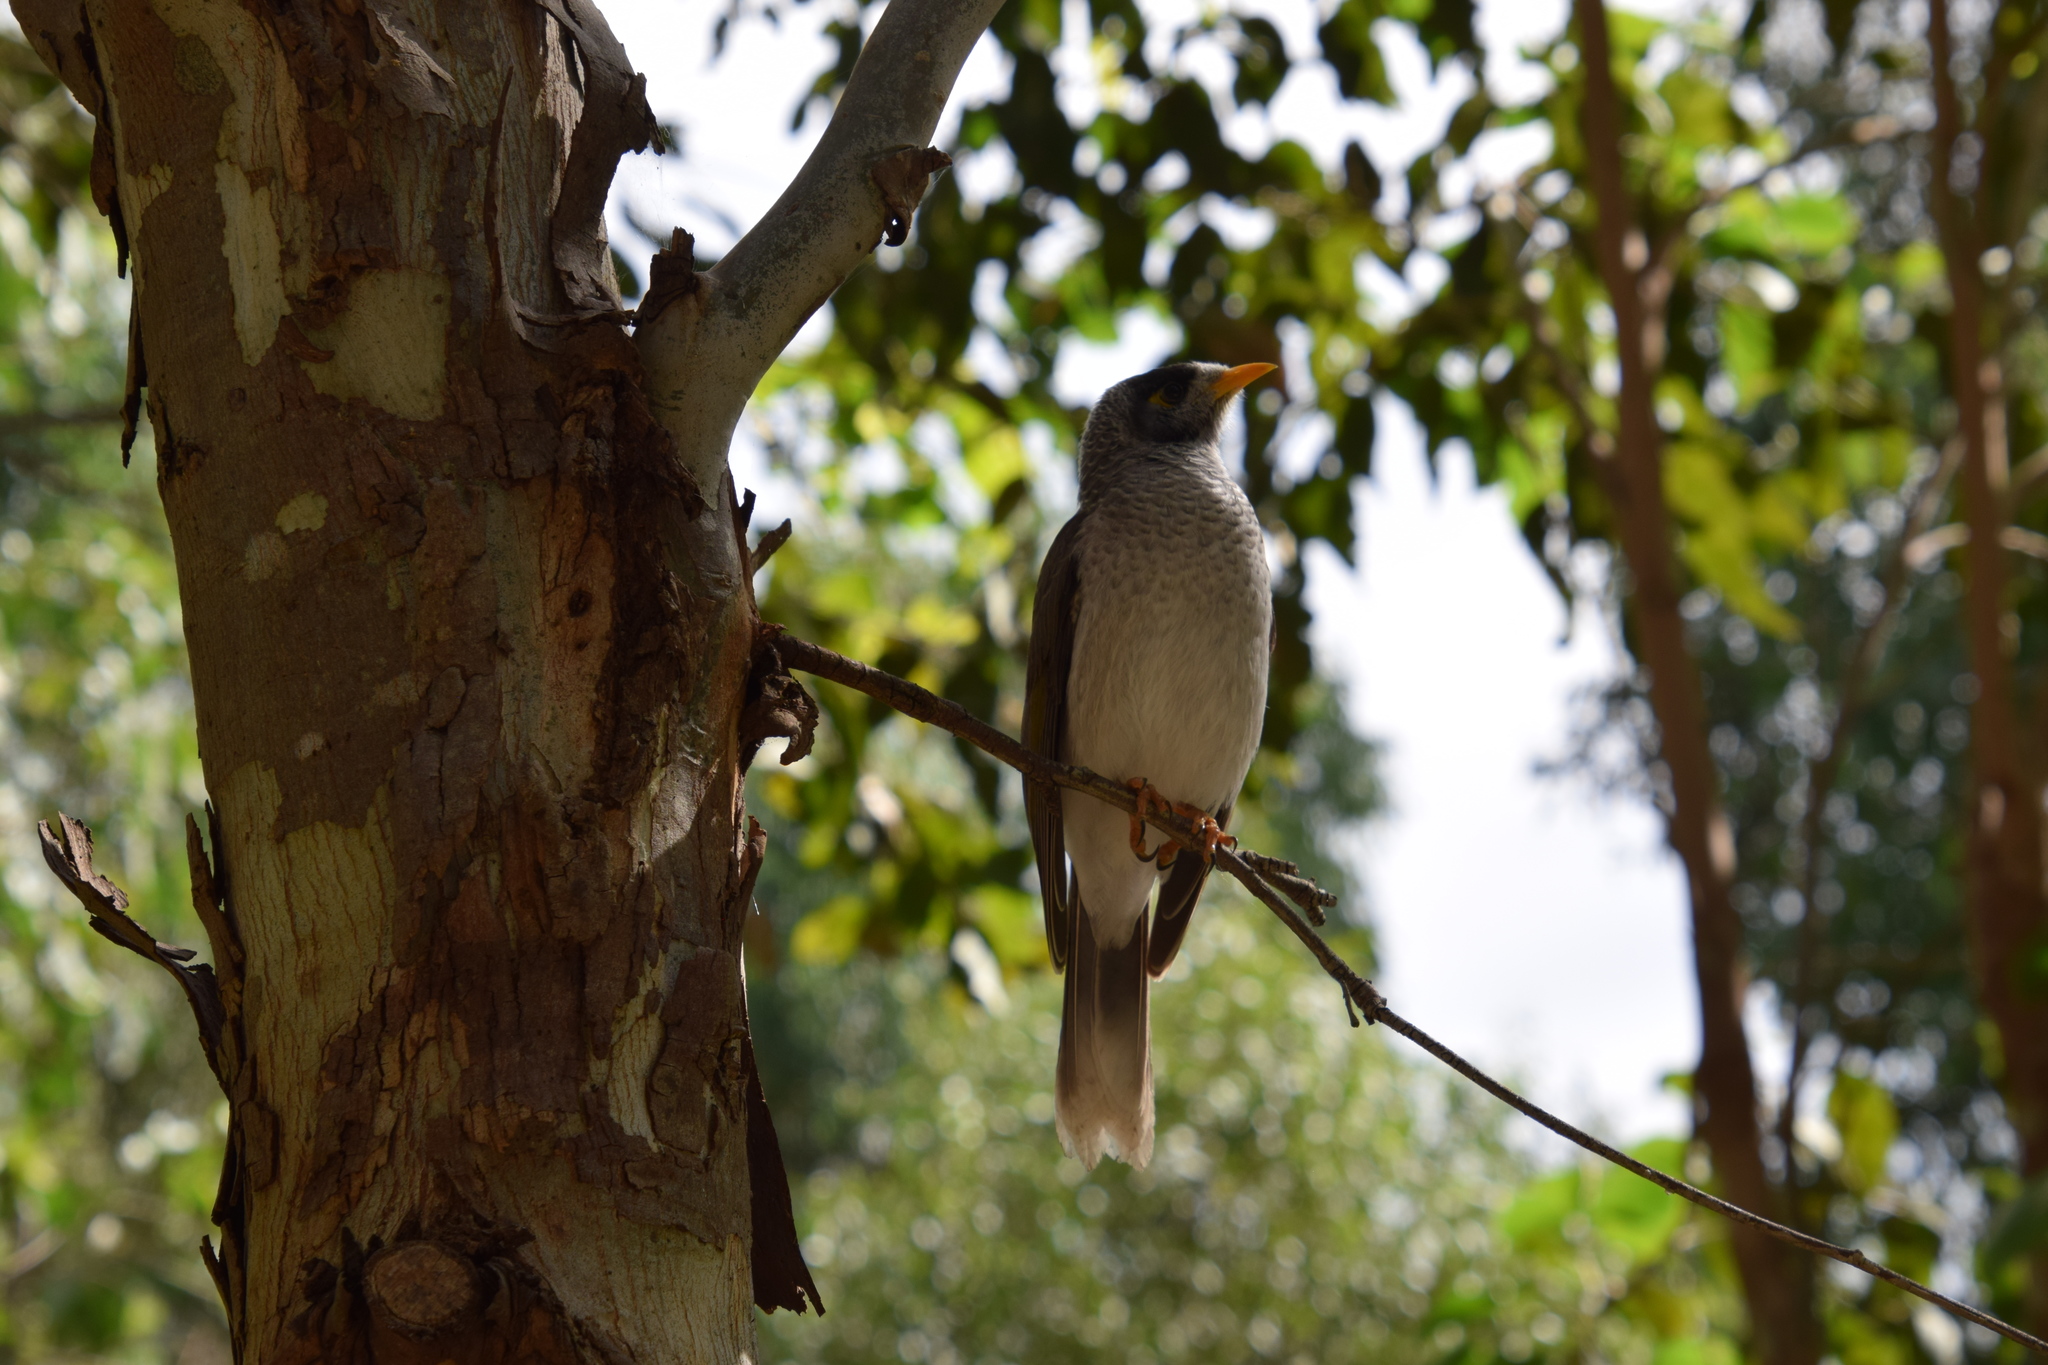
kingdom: Animalia
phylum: Chordata
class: Aves
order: Passeriformes
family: Meliphagidae
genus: Manorina
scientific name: Manorina melanocephala
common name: Noisy miner
